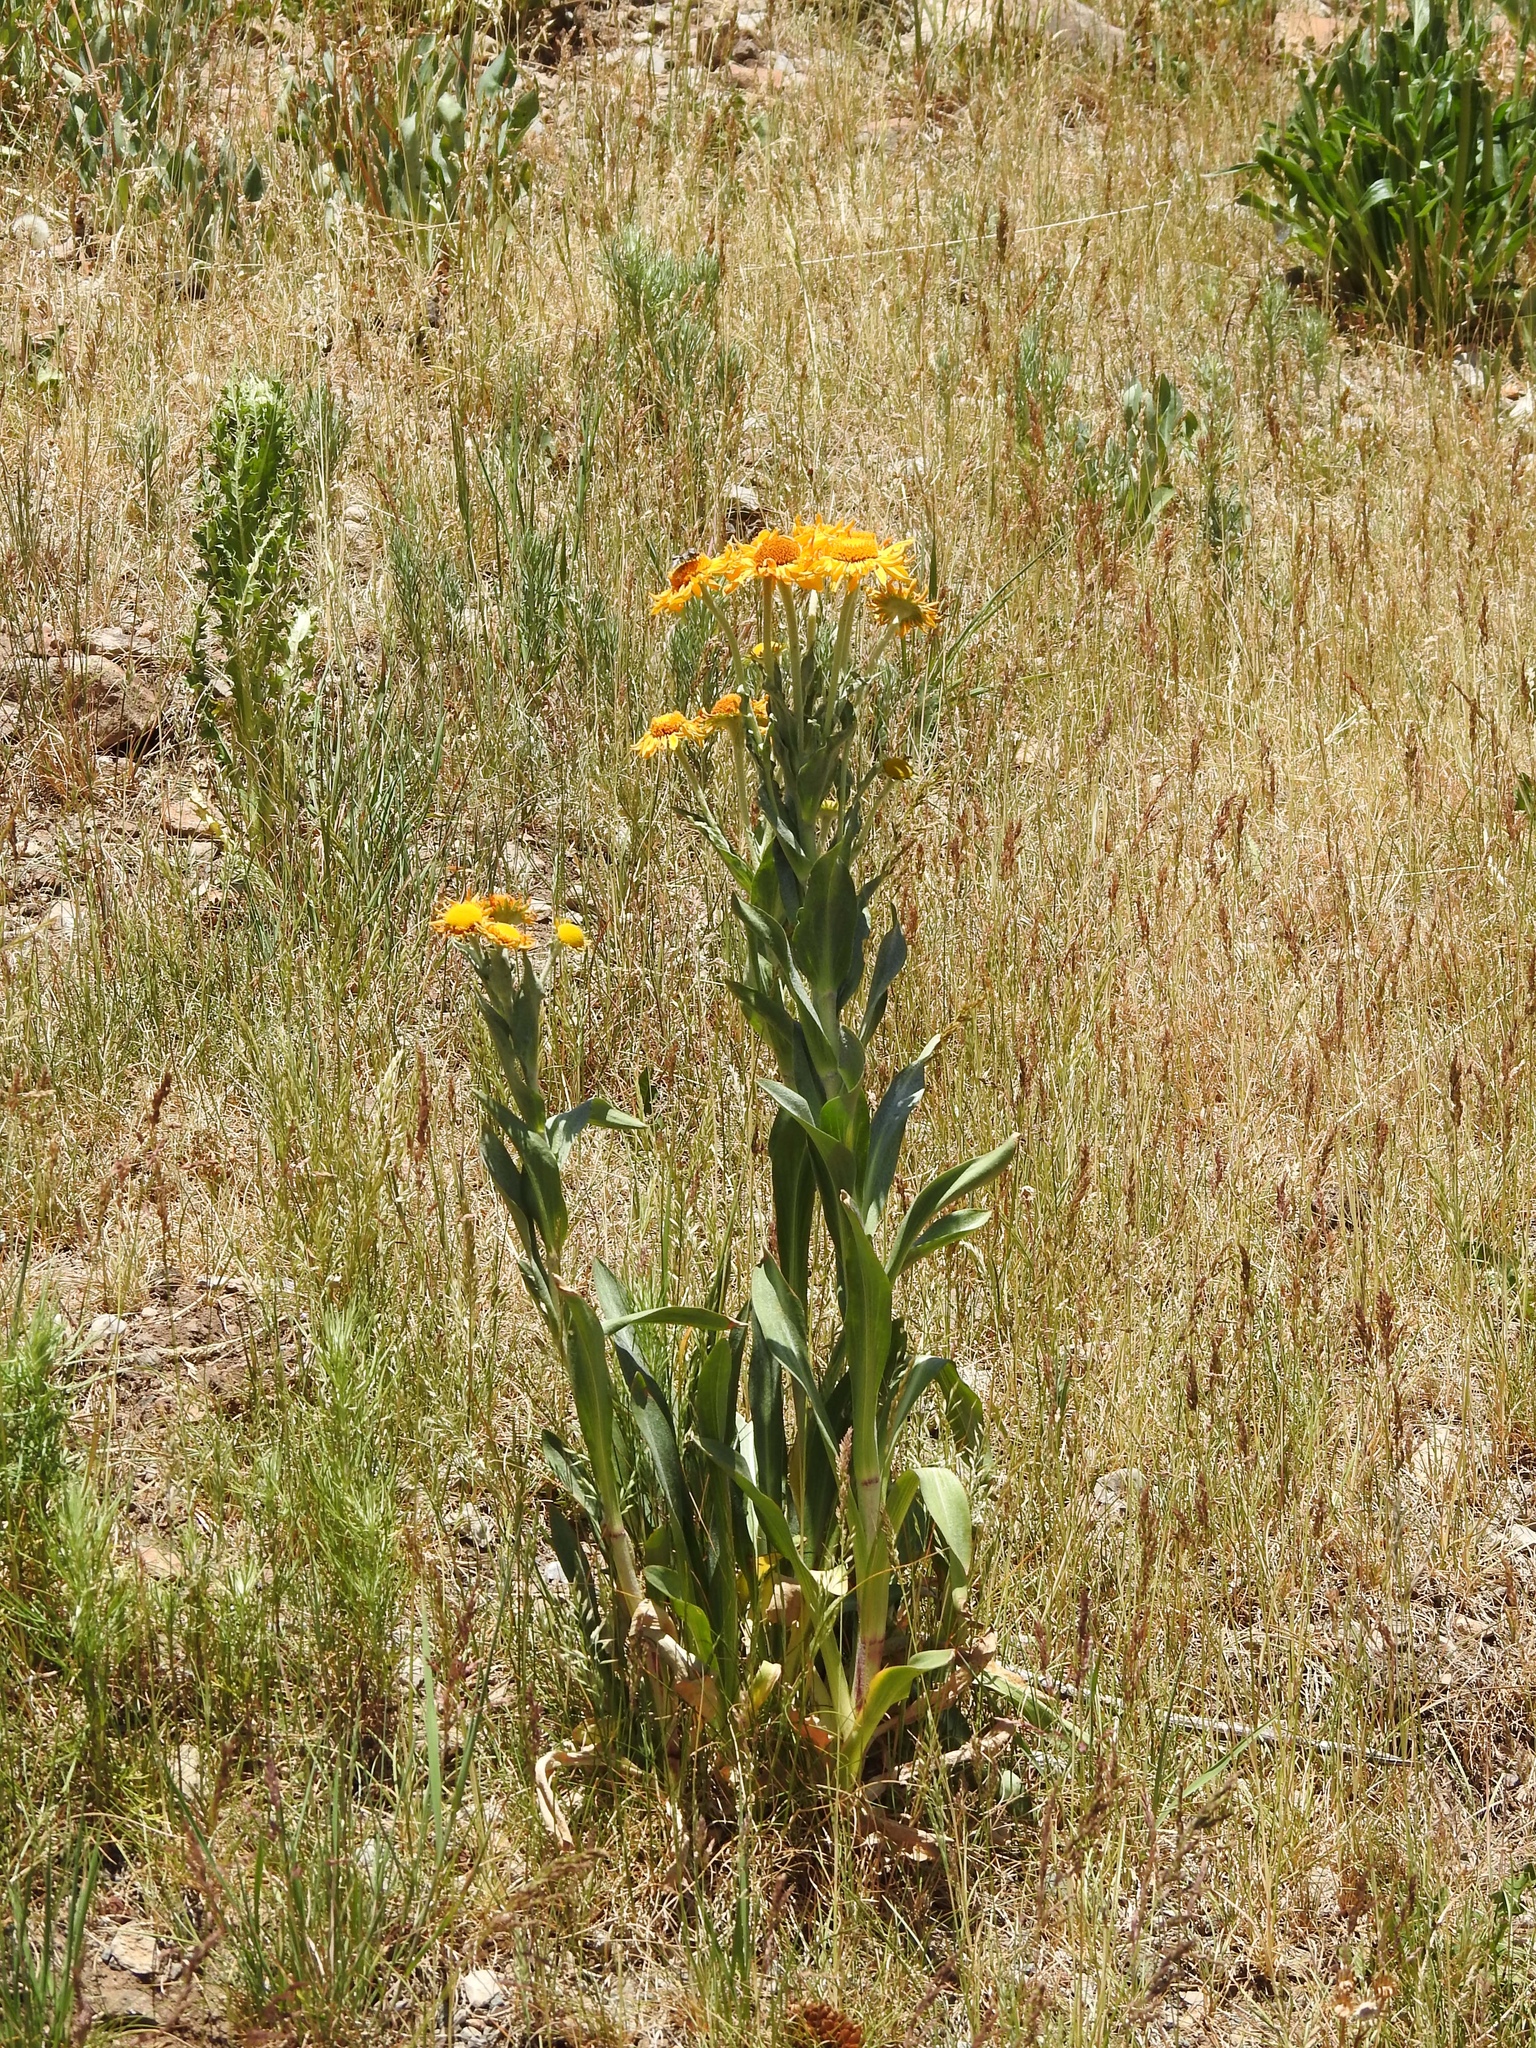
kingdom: Plantae
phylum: Tracheophyta
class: Magnoliopsida
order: Asterales
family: Asteraceae
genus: Hymenoxys
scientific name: Hymenoxys hoopesii
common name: Orange-sneezeweed
